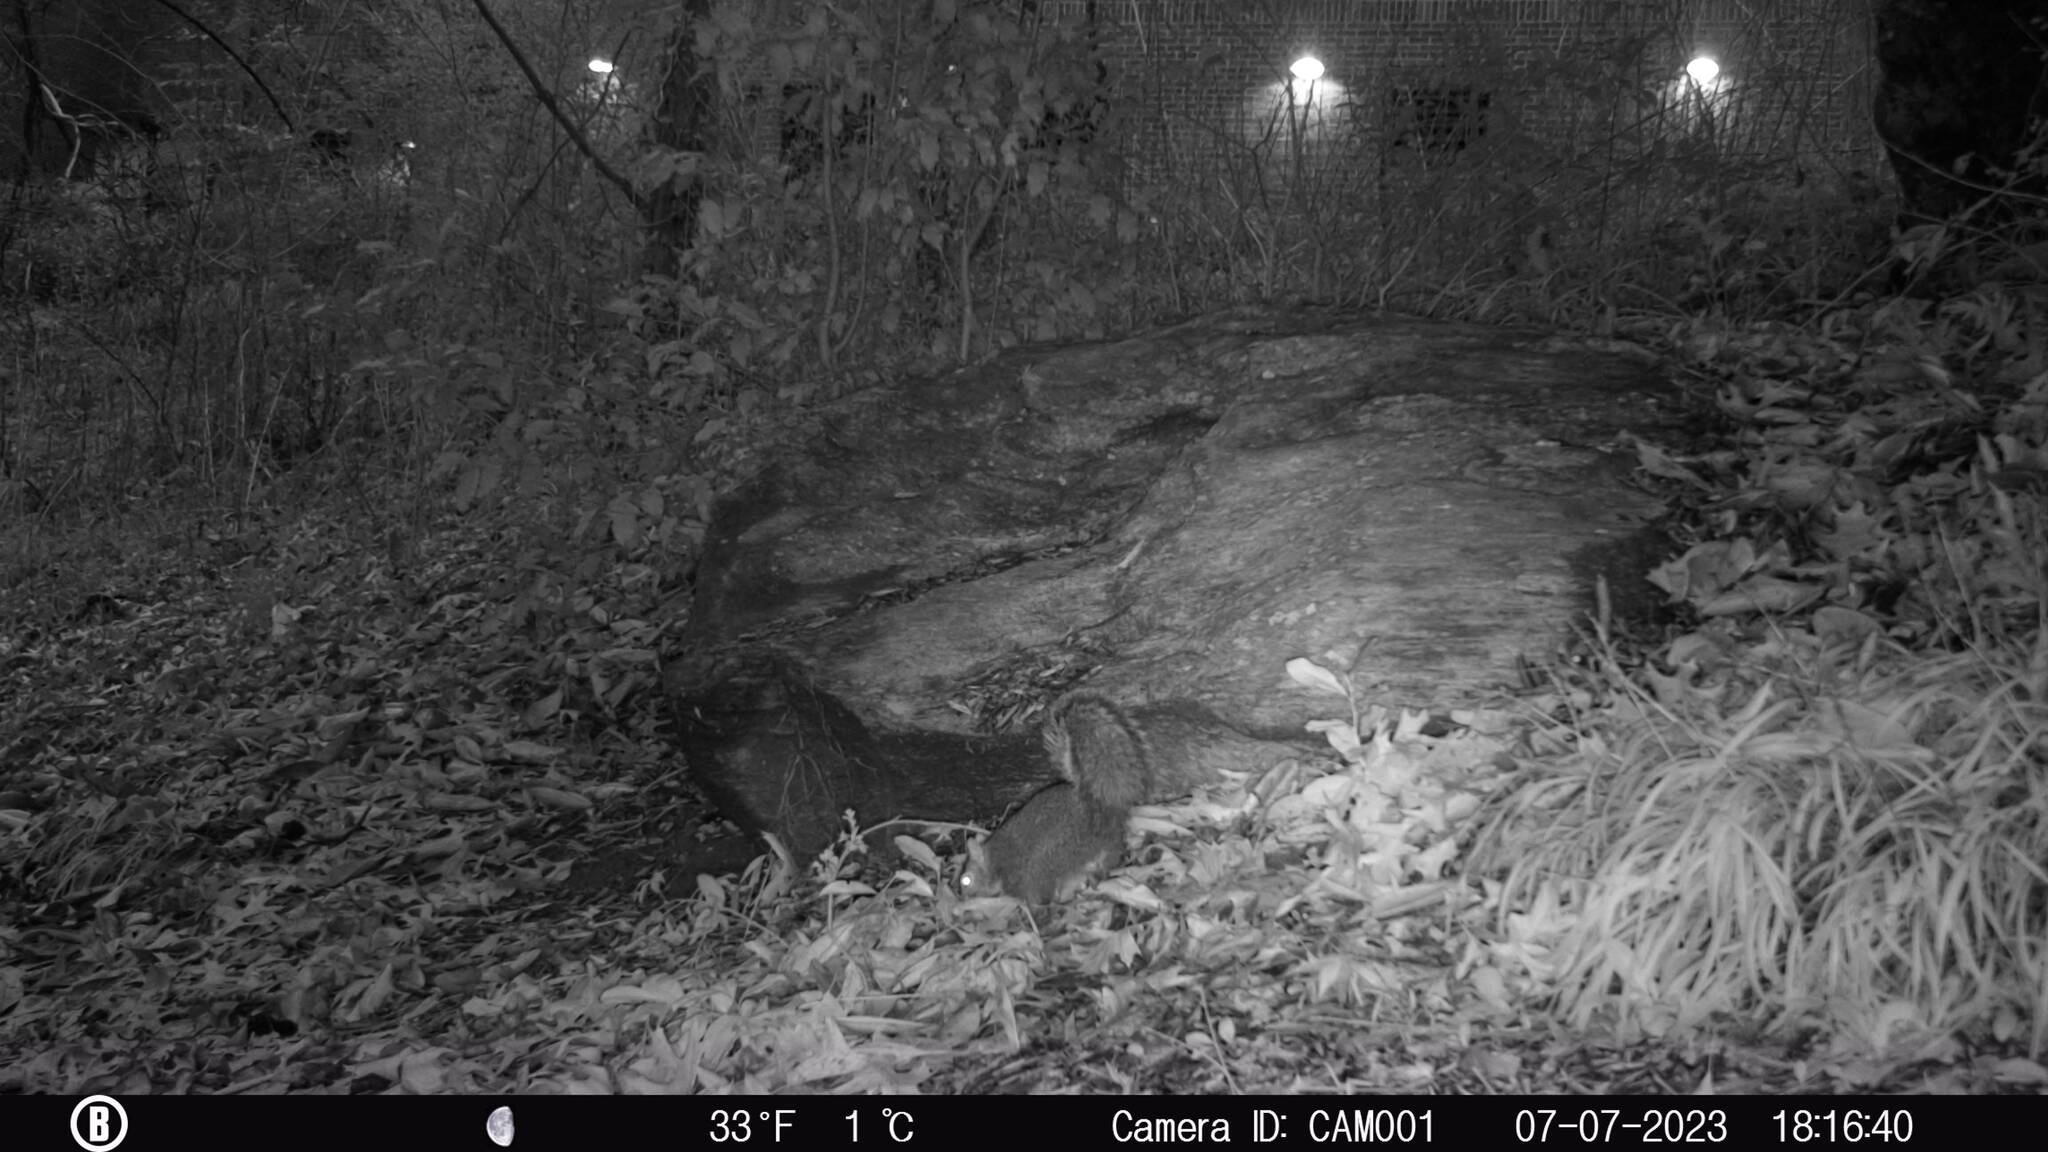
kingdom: Animalia
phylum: Chordata
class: Mammalia
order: Rodentia
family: Sciuridae
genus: Sciurus
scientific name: Sciurus carolinensis
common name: Eastern gray squirrel
